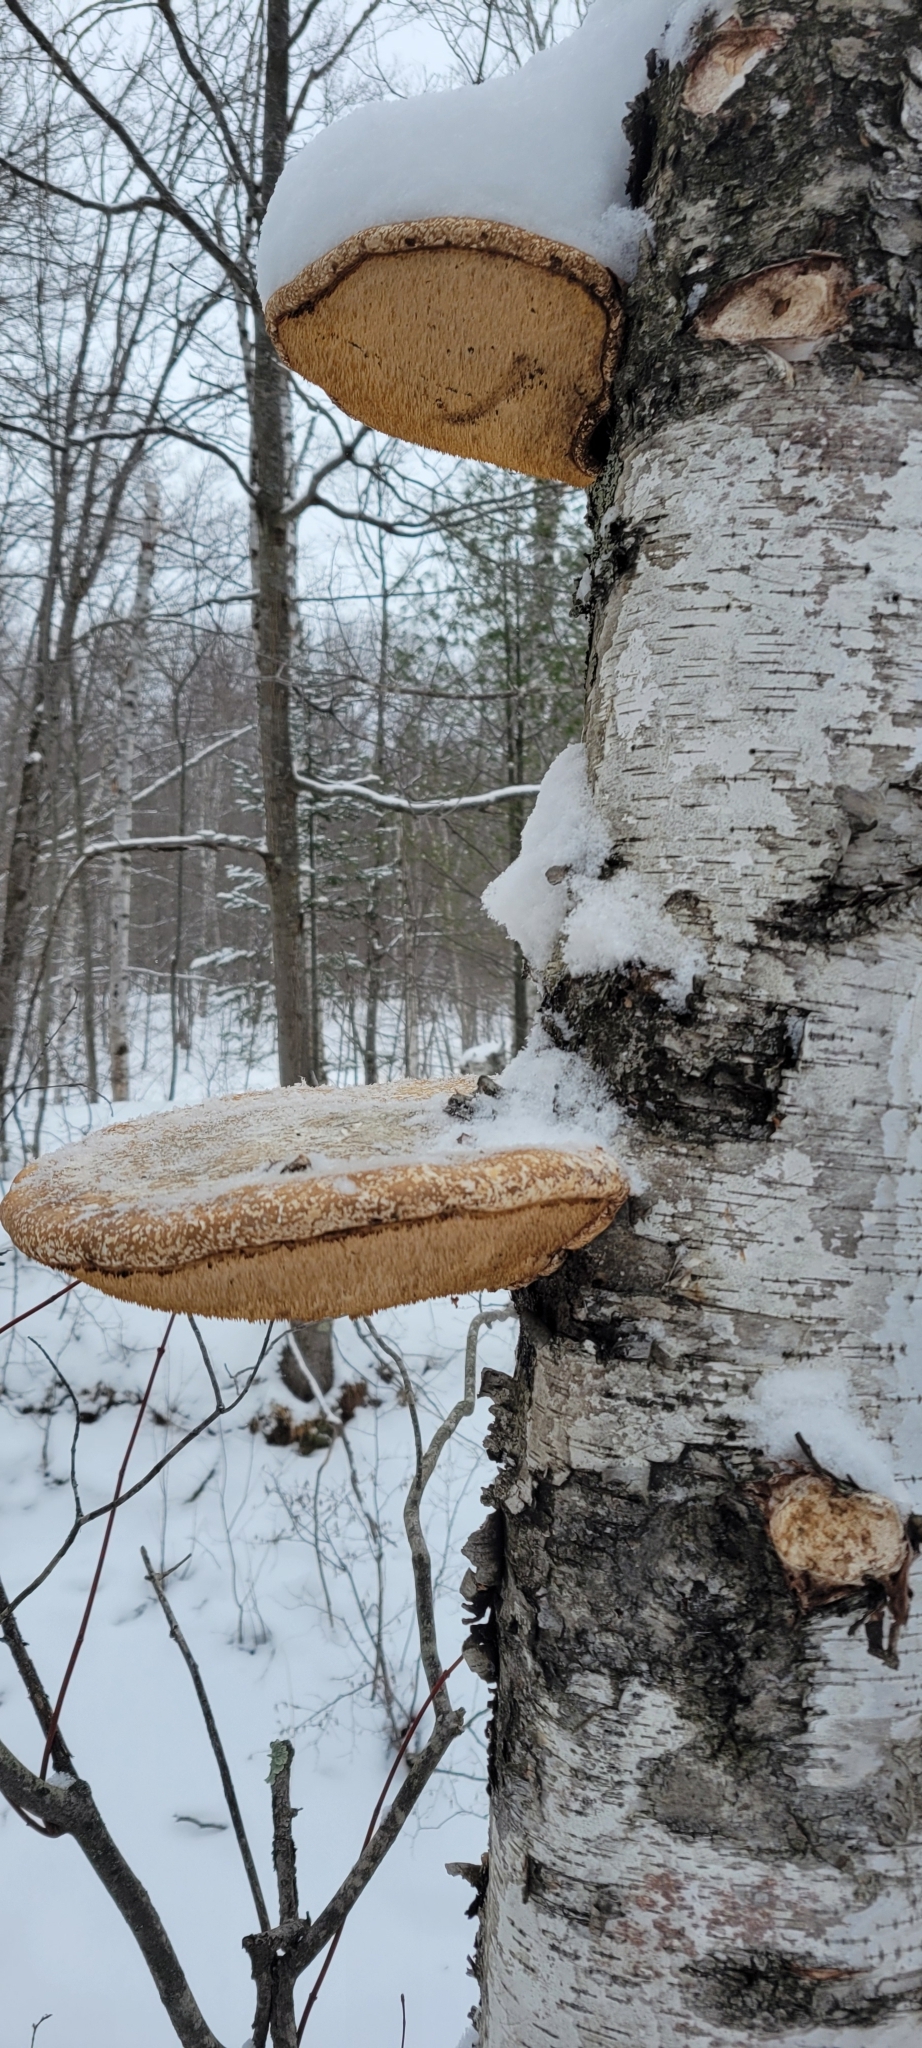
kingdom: Fungi
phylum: Basidiomycota
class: Agaricomycetes
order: Polyporales
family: Fomitopsidaceae
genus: Fomitopsis
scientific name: Fomitopsis betulina
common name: Birch polypore
